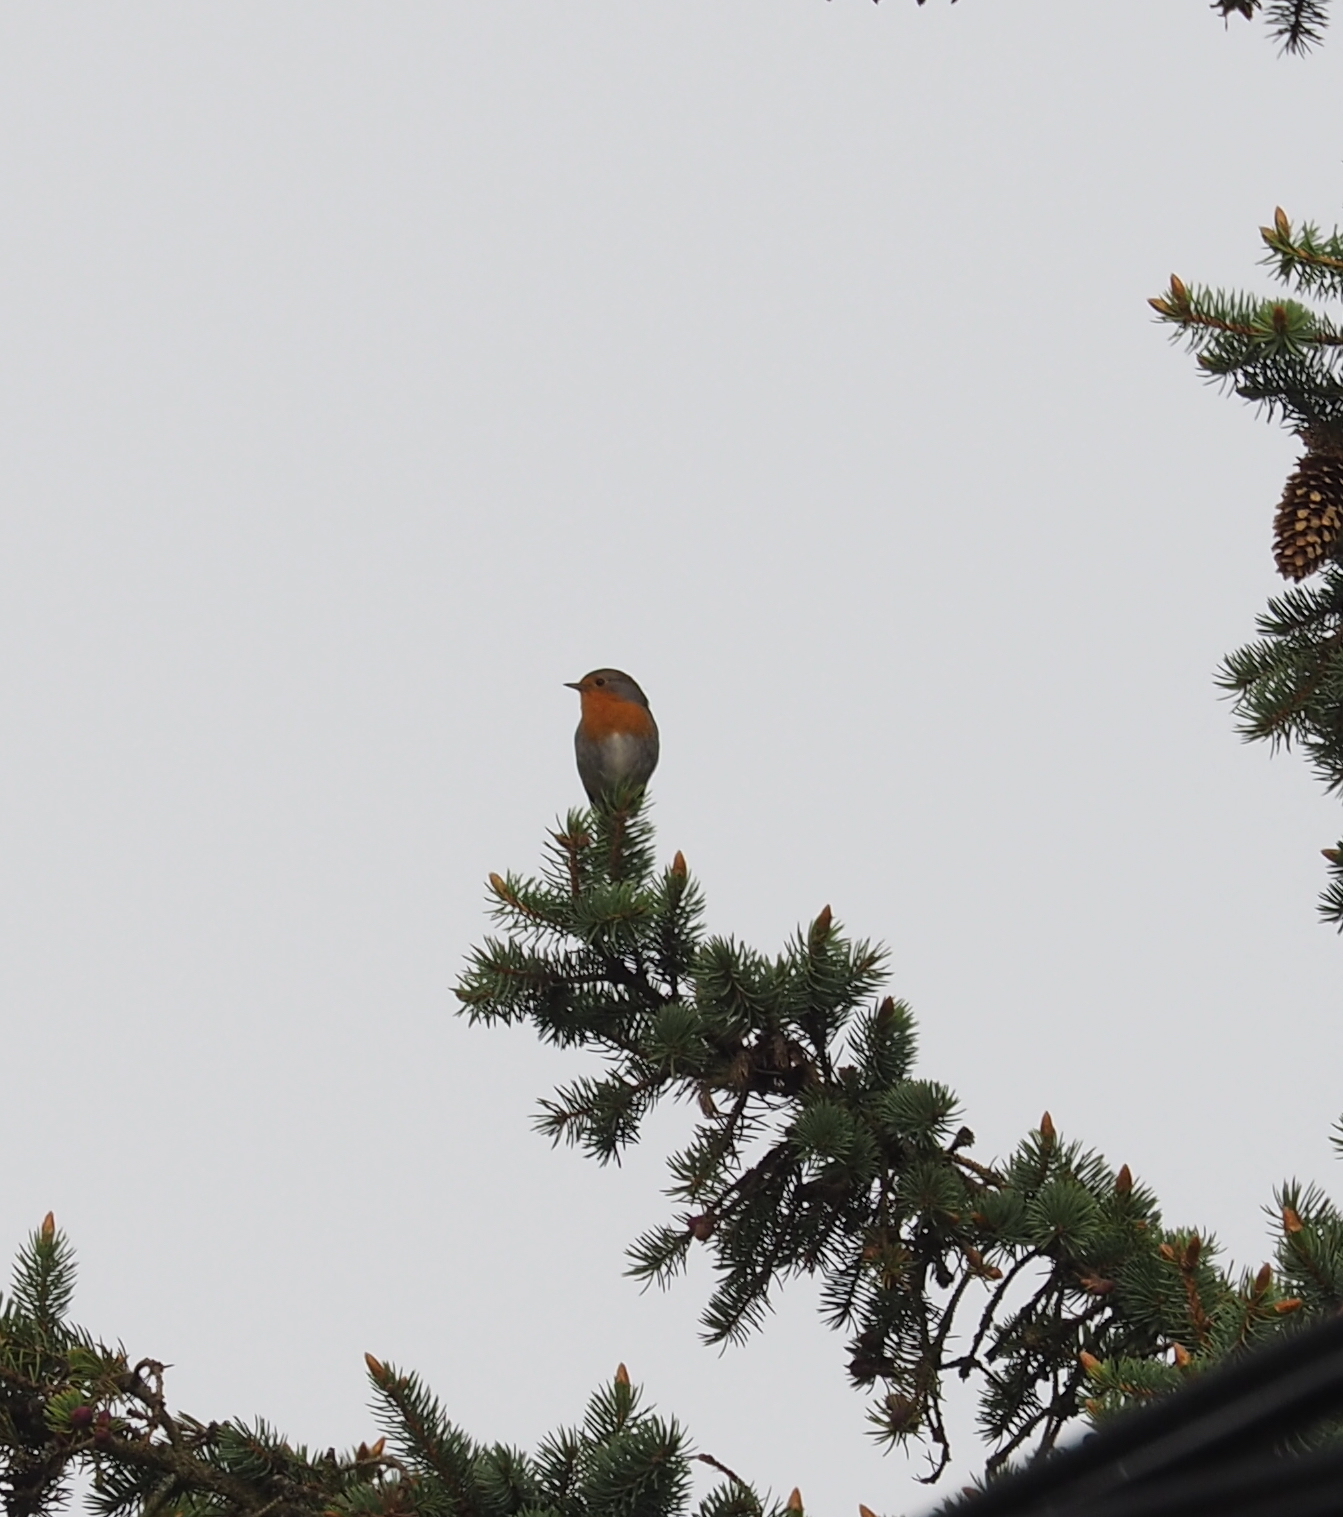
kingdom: Animalia
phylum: Chordata
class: Aves
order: Passeriformes
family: Muscicapidae
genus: Erithacus
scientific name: Erithacus rubecula
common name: European robin
